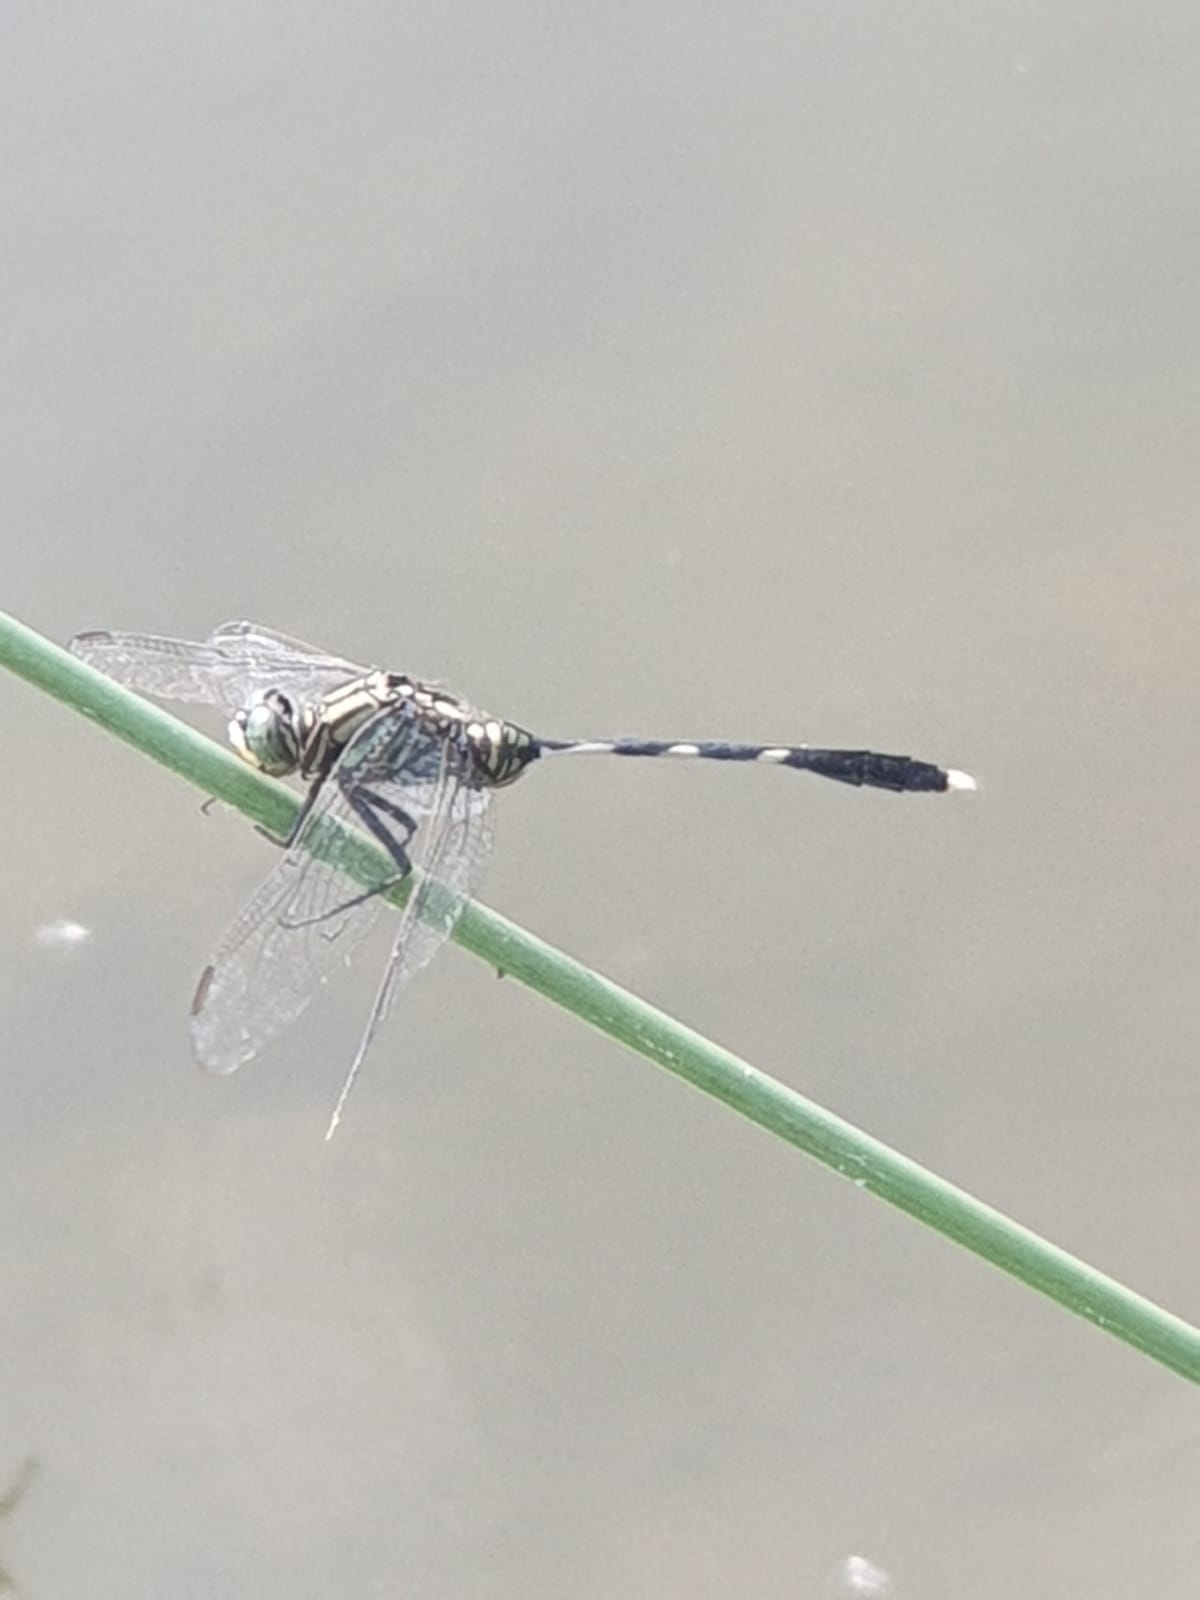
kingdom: Animalia
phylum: Arthropoda
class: Insecta
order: Odonata
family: Libellulidae
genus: Orthetrum
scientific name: Orthetrum sabina
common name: Slender skimmer
